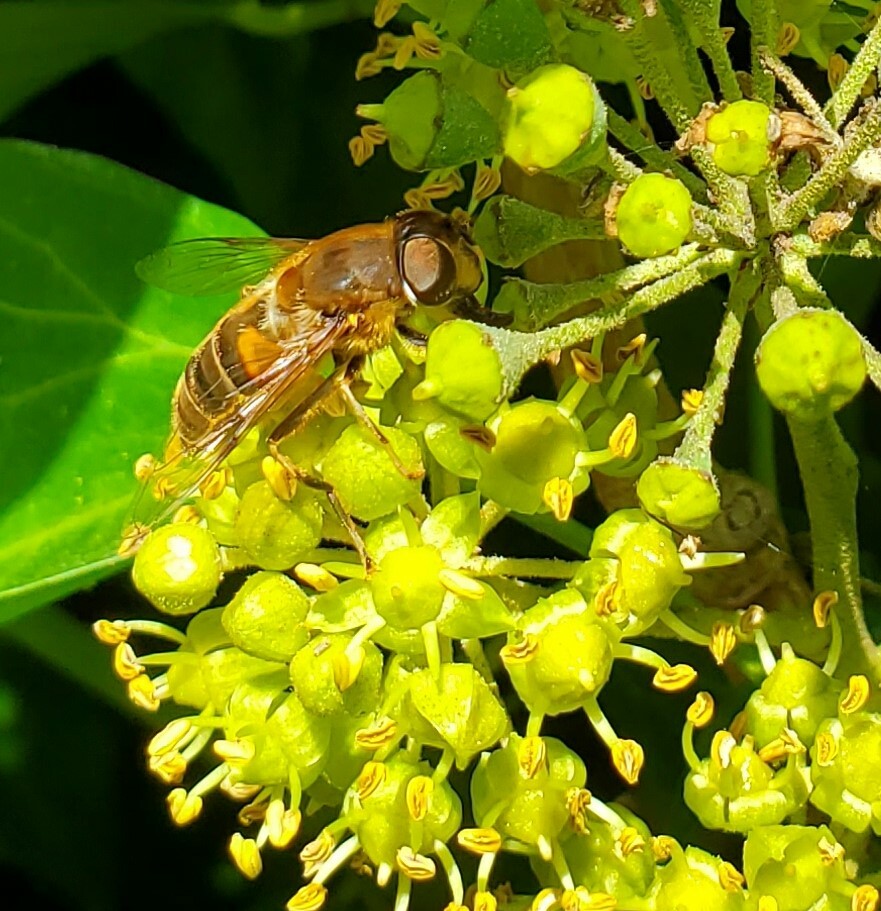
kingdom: Animalia
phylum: Arthropoda
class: Insecta
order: Diptera
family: Syrphidae
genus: Eristalis
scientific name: Eristalis pertinax
